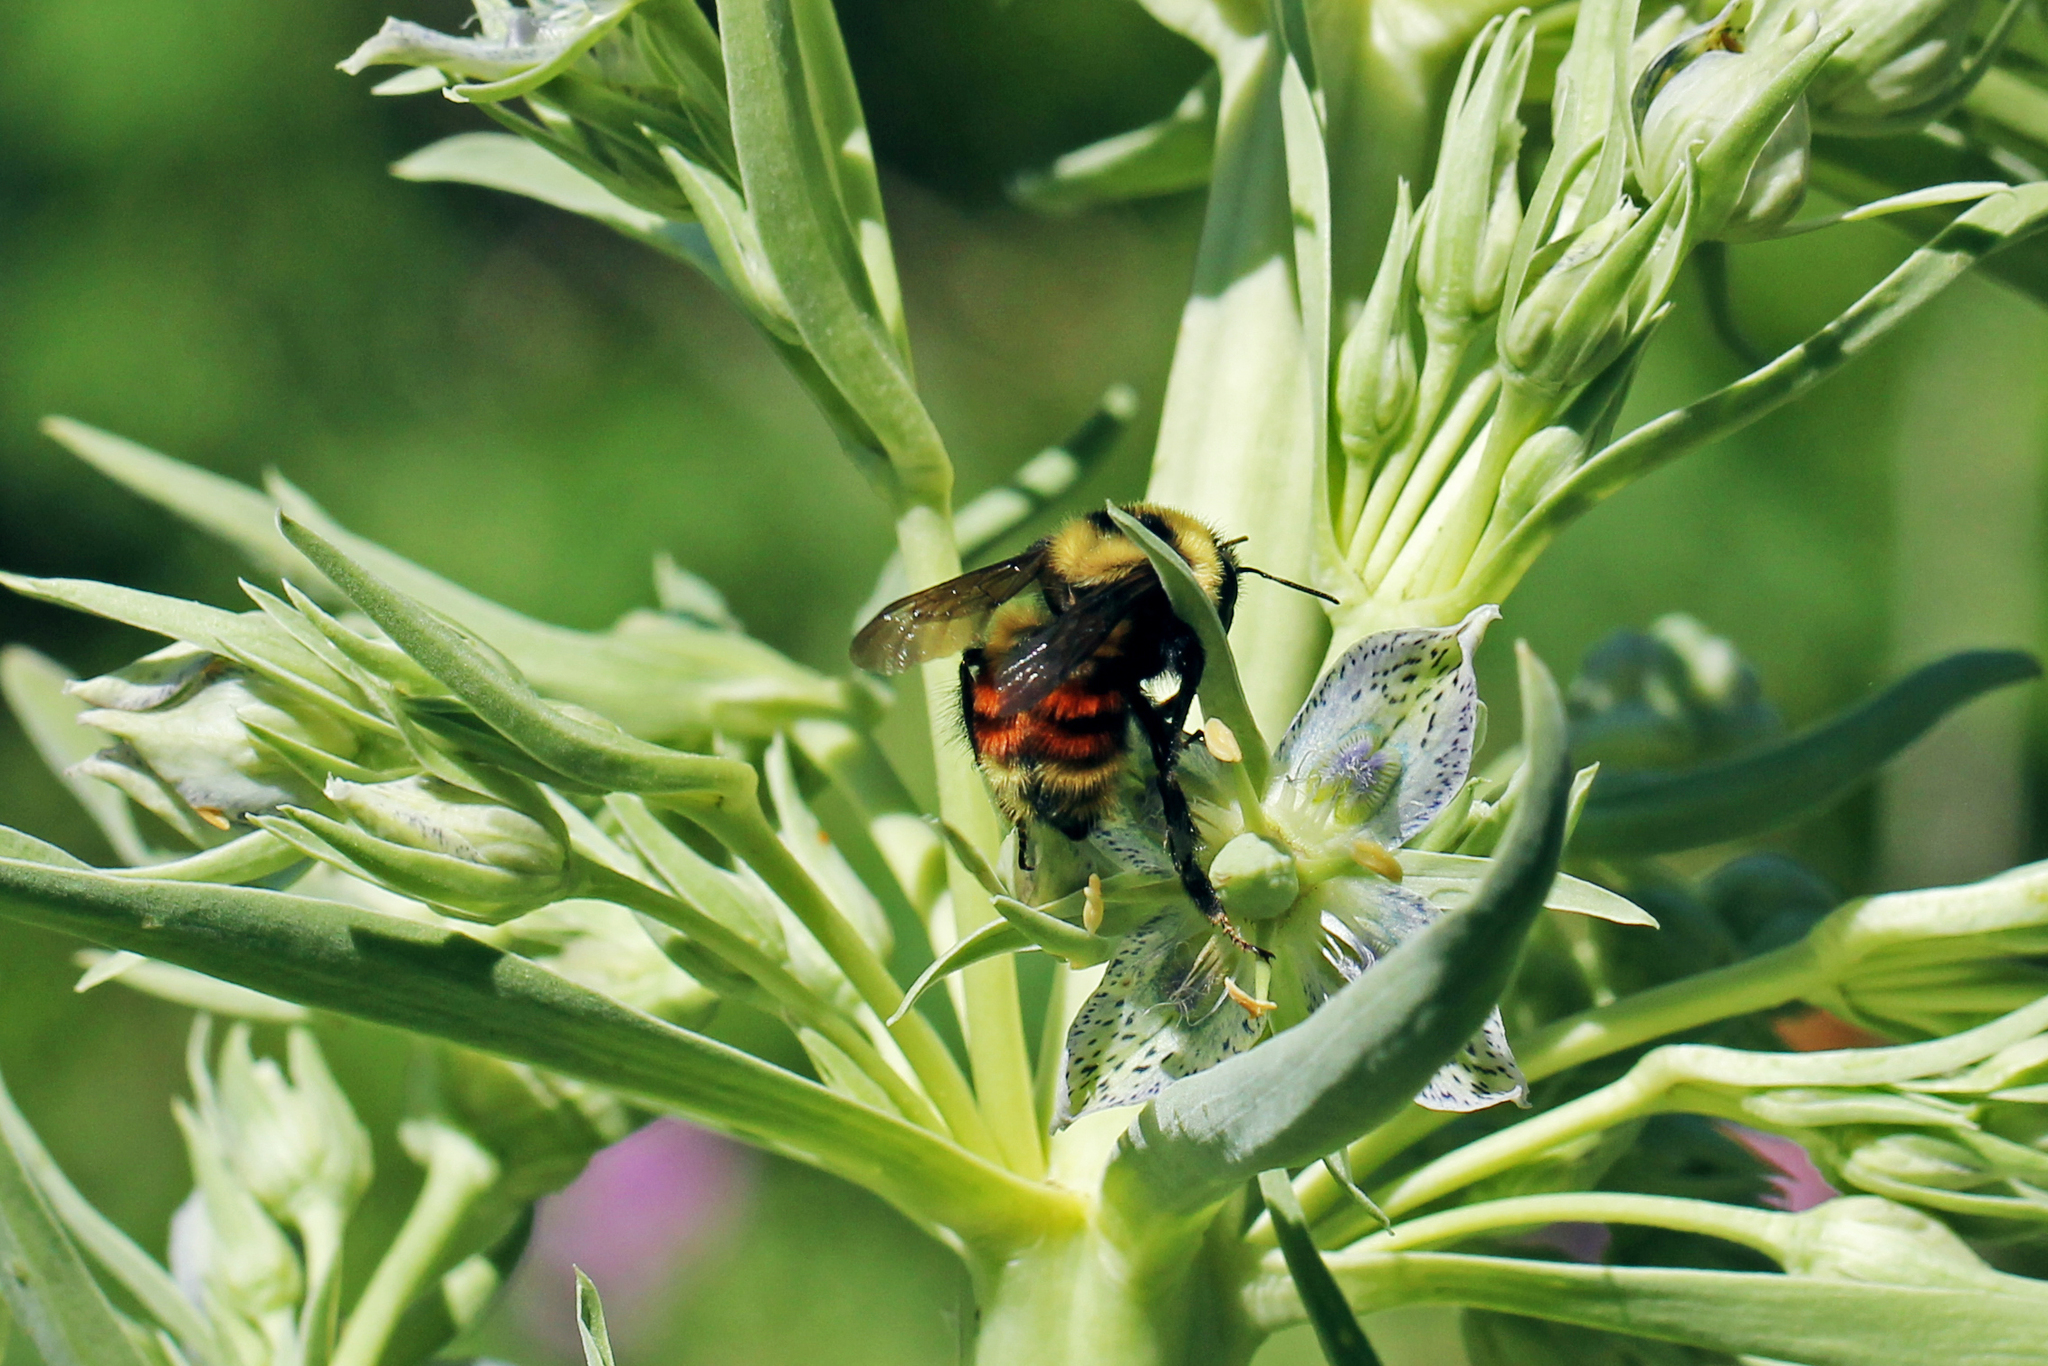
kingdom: Animalia
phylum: Arthropoda
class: Insecta
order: Hymenoptera
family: Apidae
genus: Bombus
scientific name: Bombus rufocinctus
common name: Red-belted bumble bee
